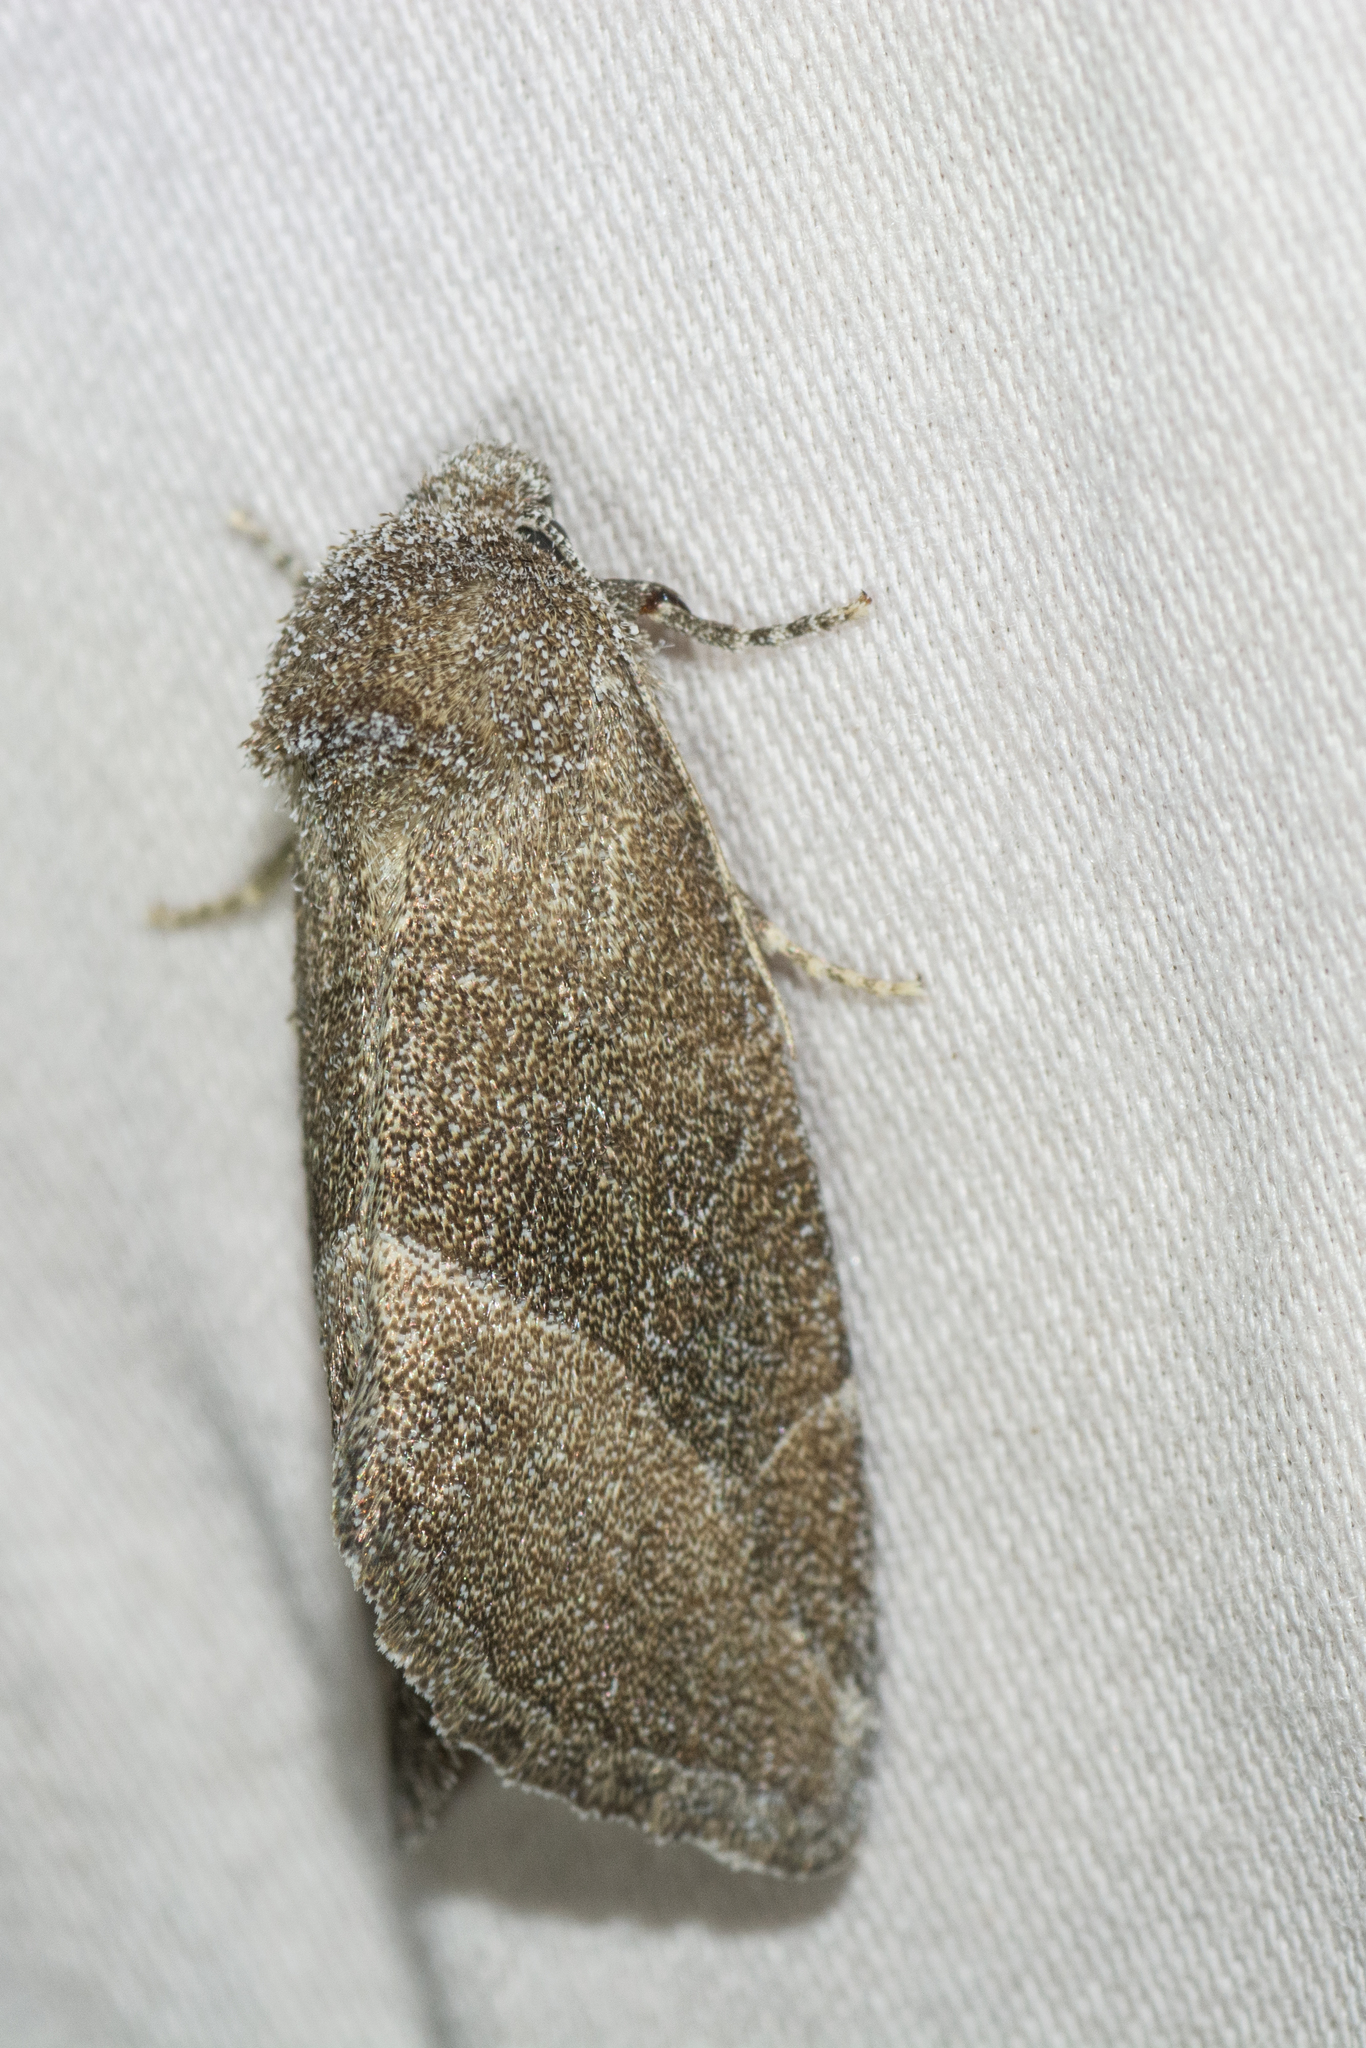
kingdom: Animalia
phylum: Arthropoda
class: Insecta
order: Lepidoptera
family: Noctuidae
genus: Plagiomimicus
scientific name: Plagiomimicus spumosum
